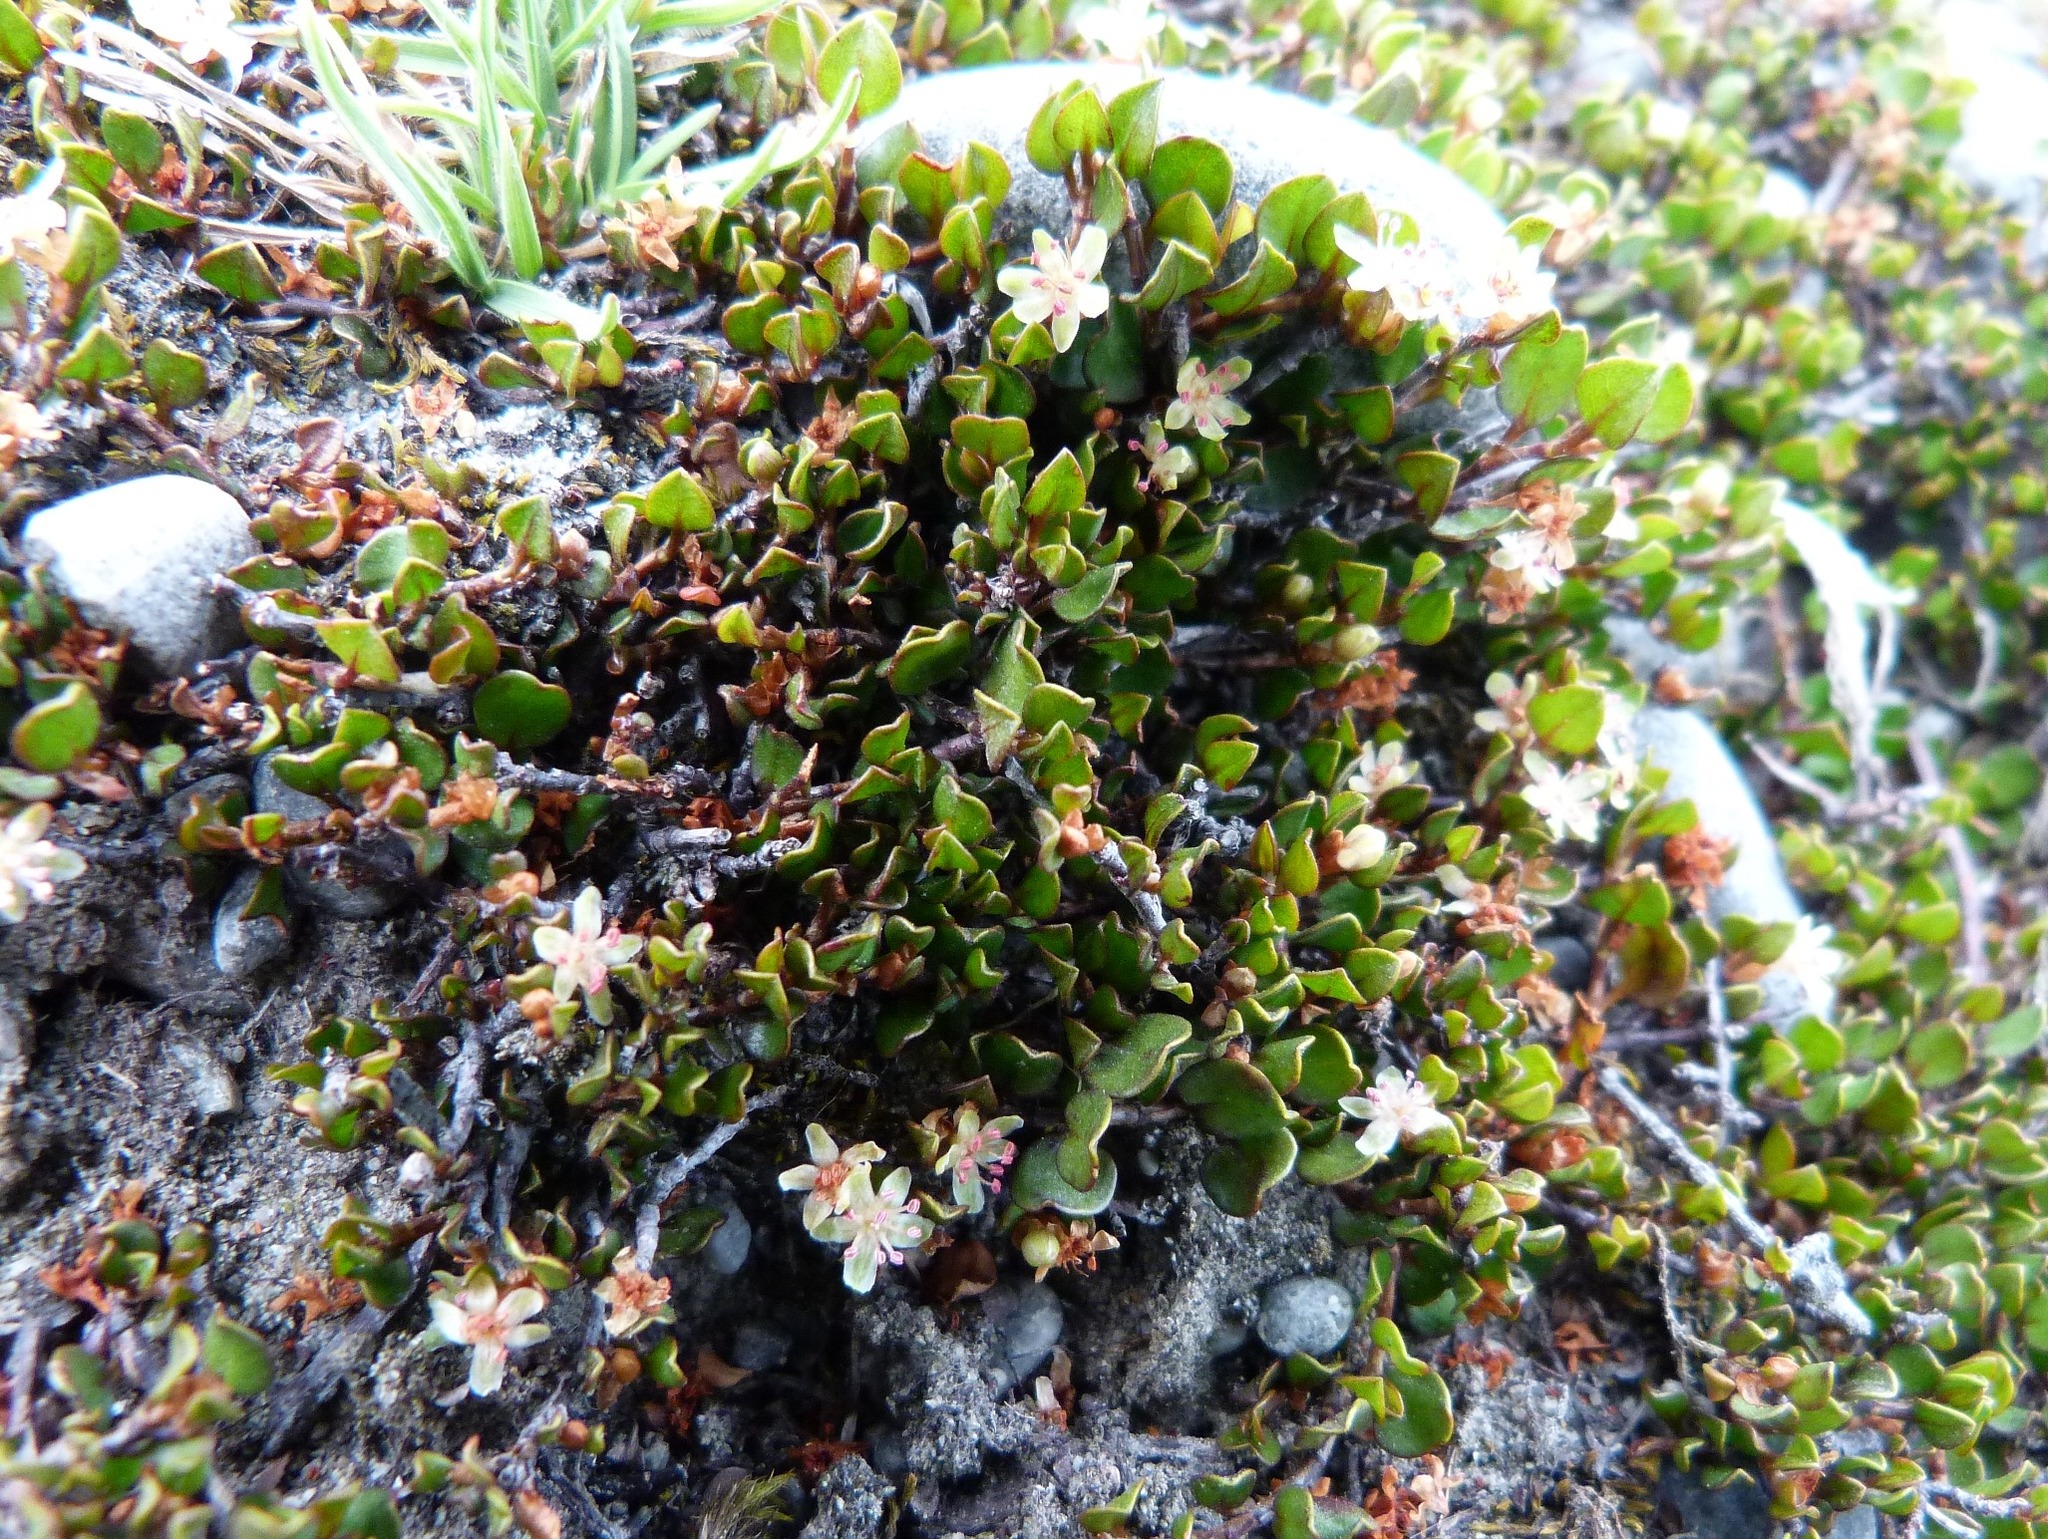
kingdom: Plantae
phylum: Tracheophyta
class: Magnoliopsida
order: Caryophyllales
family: Polygonaceae
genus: Muehlenbeckia
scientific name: Muehlenbeckia axillaris
